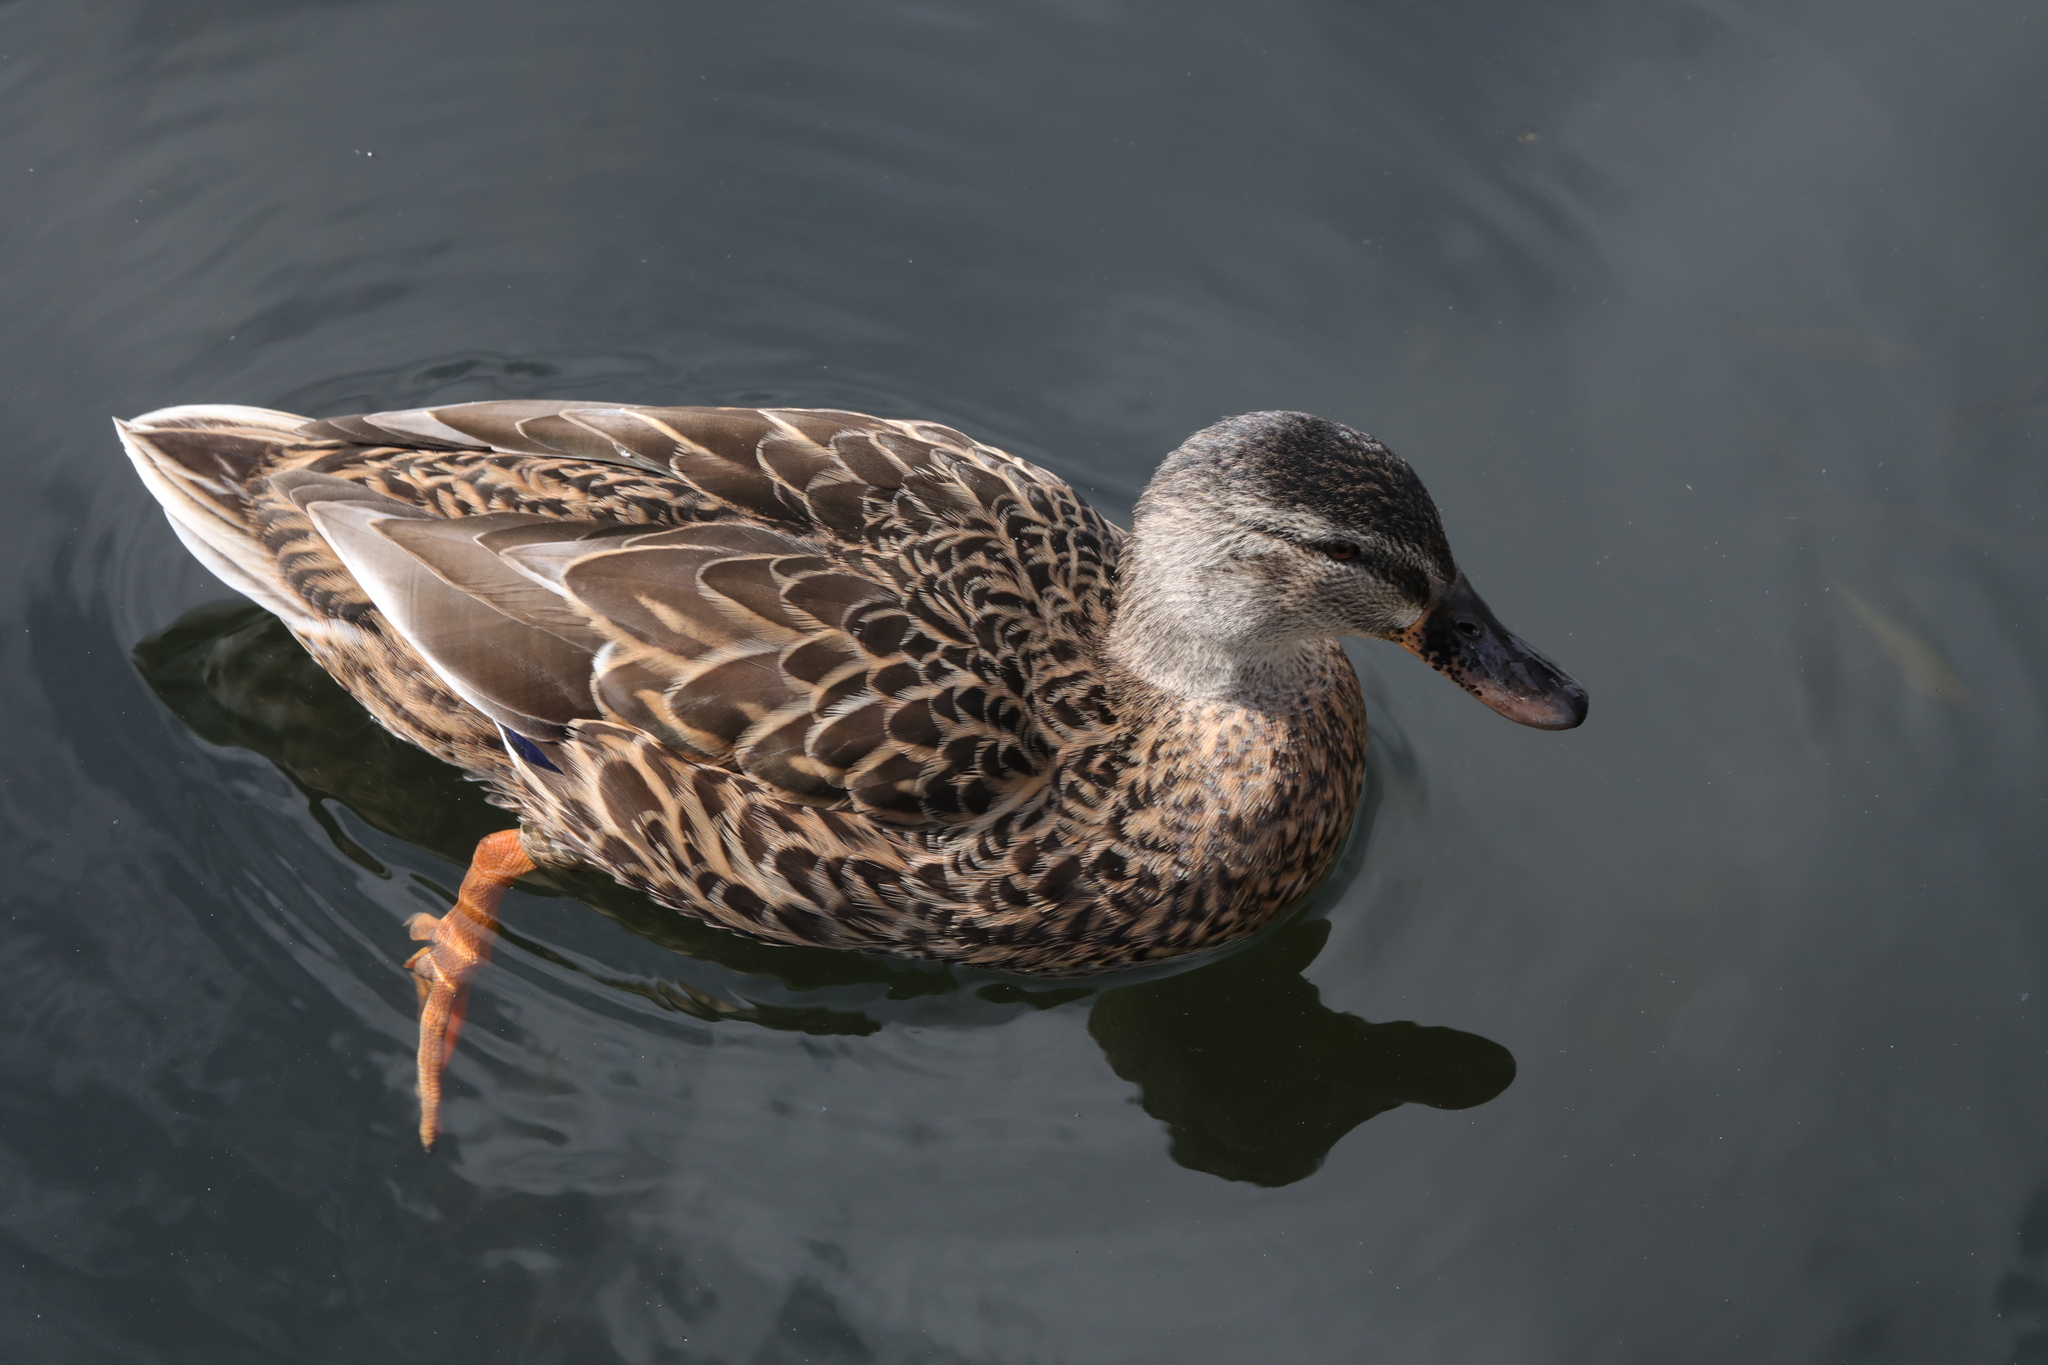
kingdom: Animalia
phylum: Chordata
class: Aves
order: Anseriformes
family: Anatidae
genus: Anas
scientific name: Anas platyrhynchos
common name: Mallard
